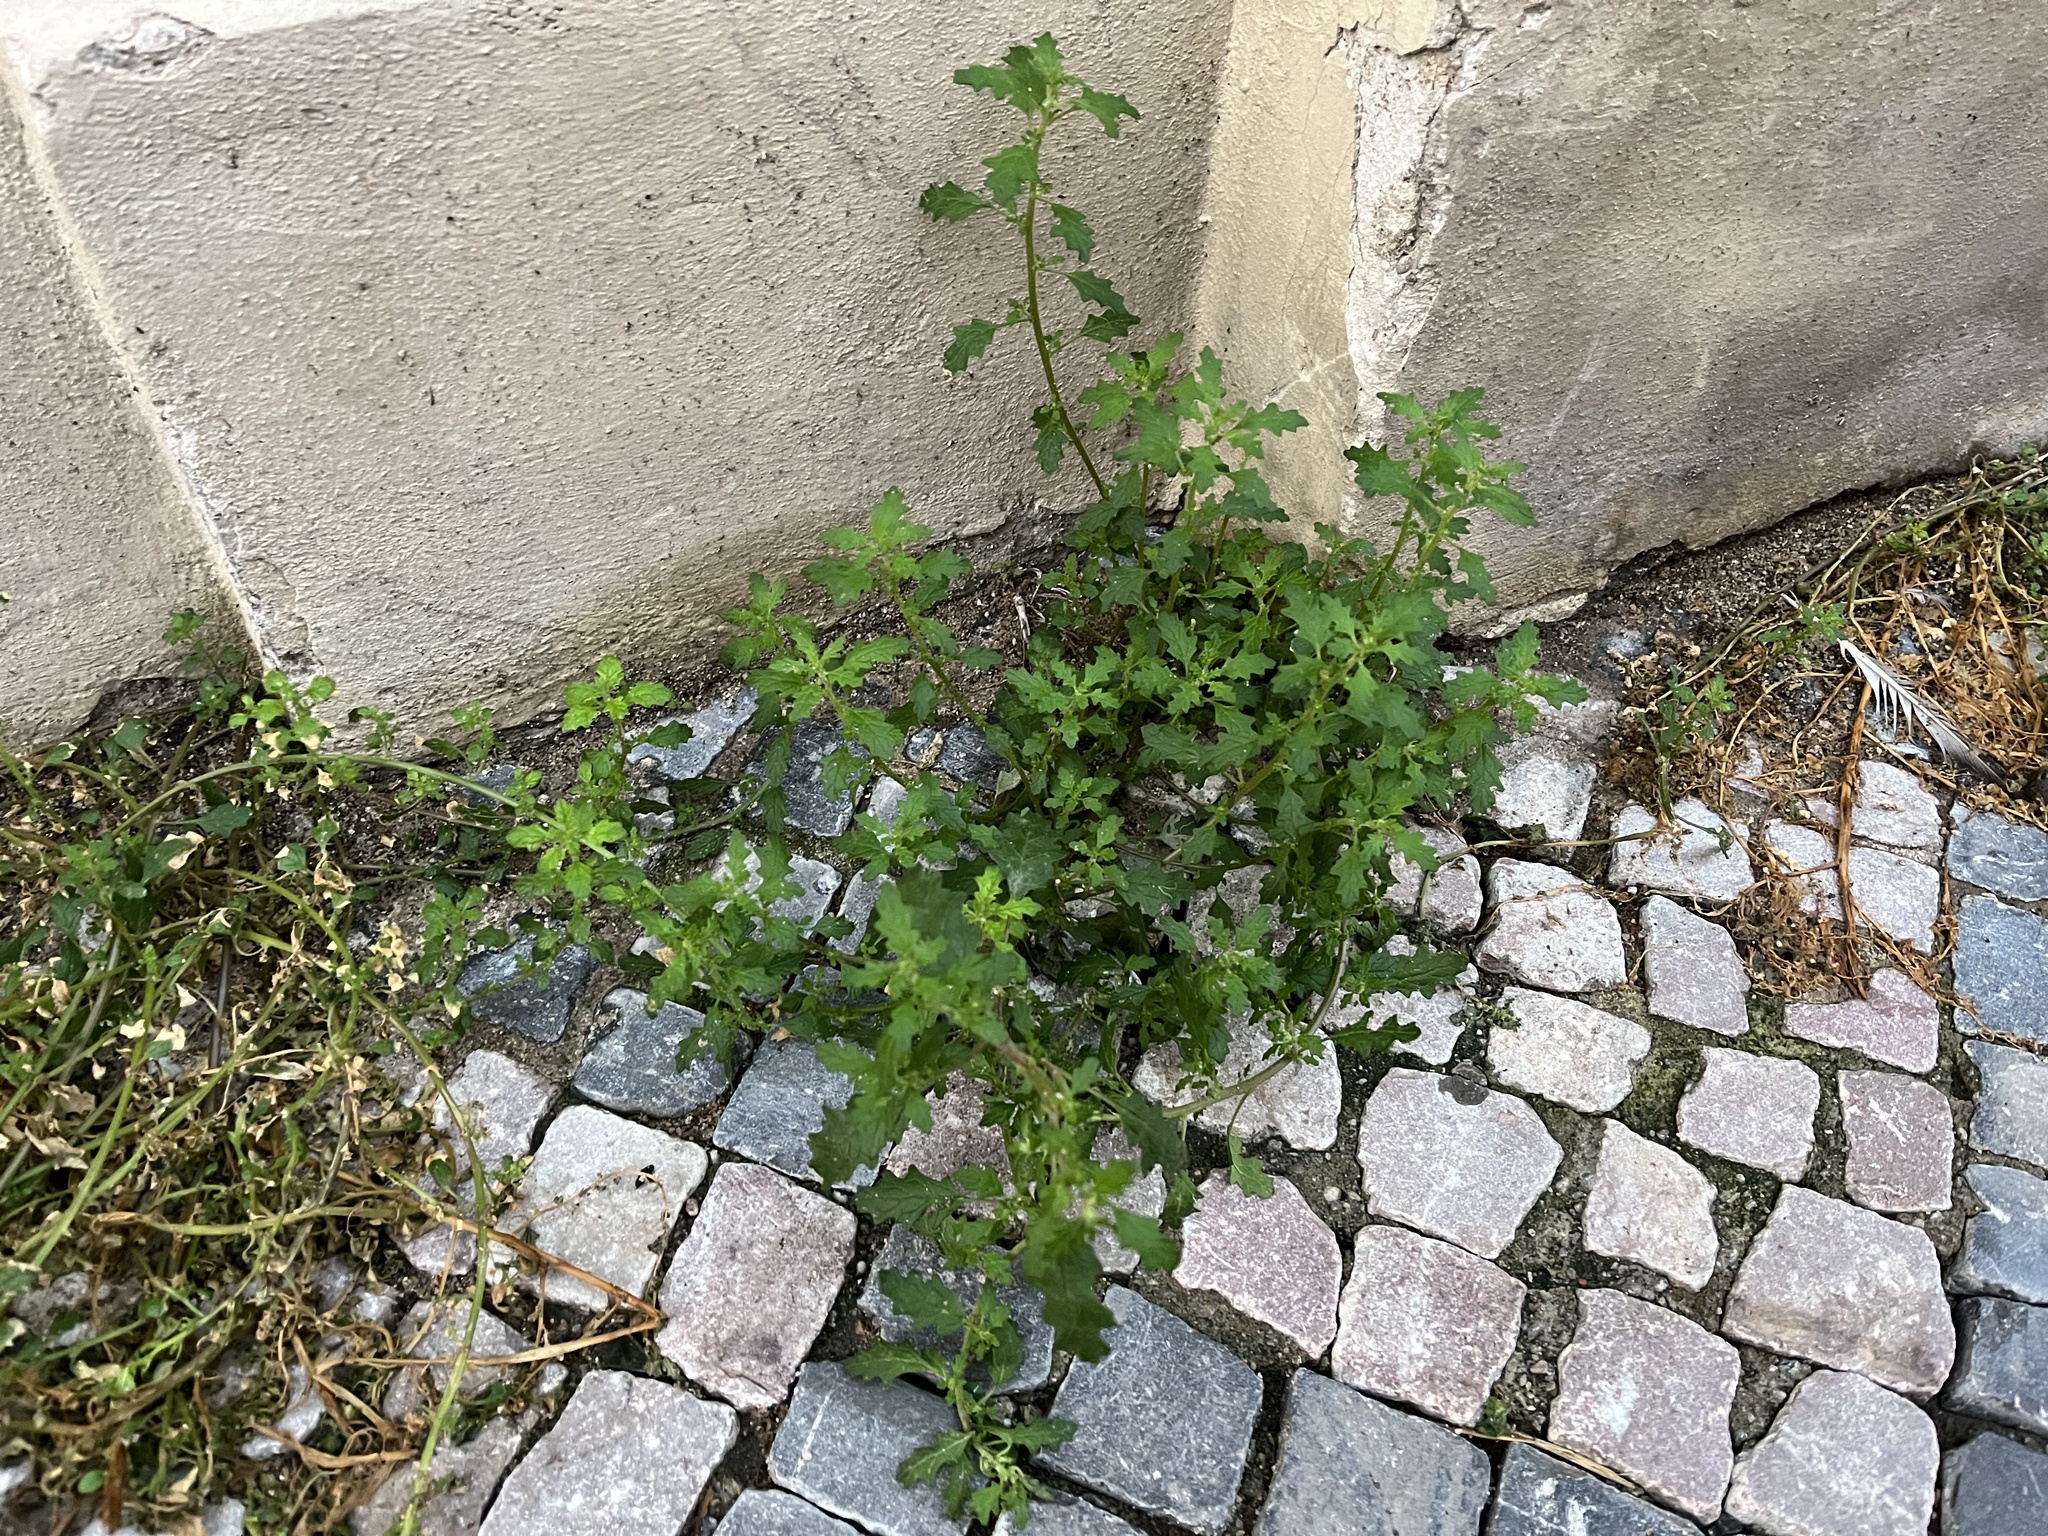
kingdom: Plantae
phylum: Tracheophyta
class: Magnoliopsida
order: Caryophyllales
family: Amaranthaceae
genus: Dysphania
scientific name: Dysphania pumilio
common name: Clammy goosefoot
